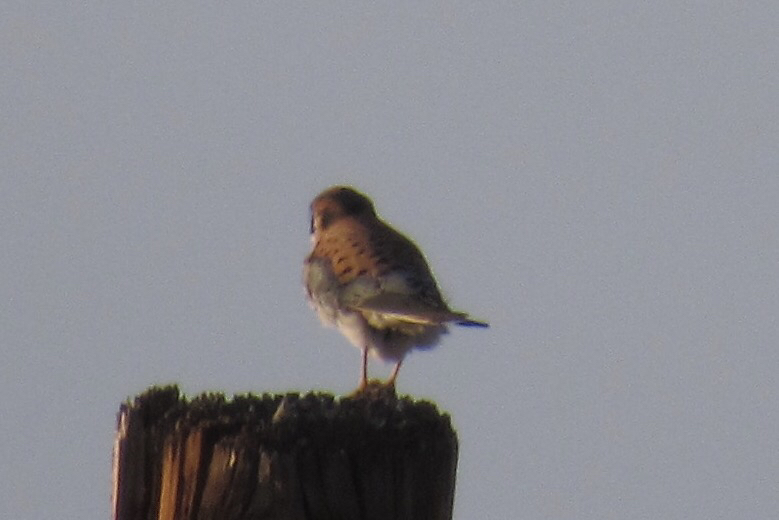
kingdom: Animalia
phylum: Chordata
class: Aves
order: Falconiformes
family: Falconidae
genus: Falco
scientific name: Falco sparverius
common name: American kestrel
